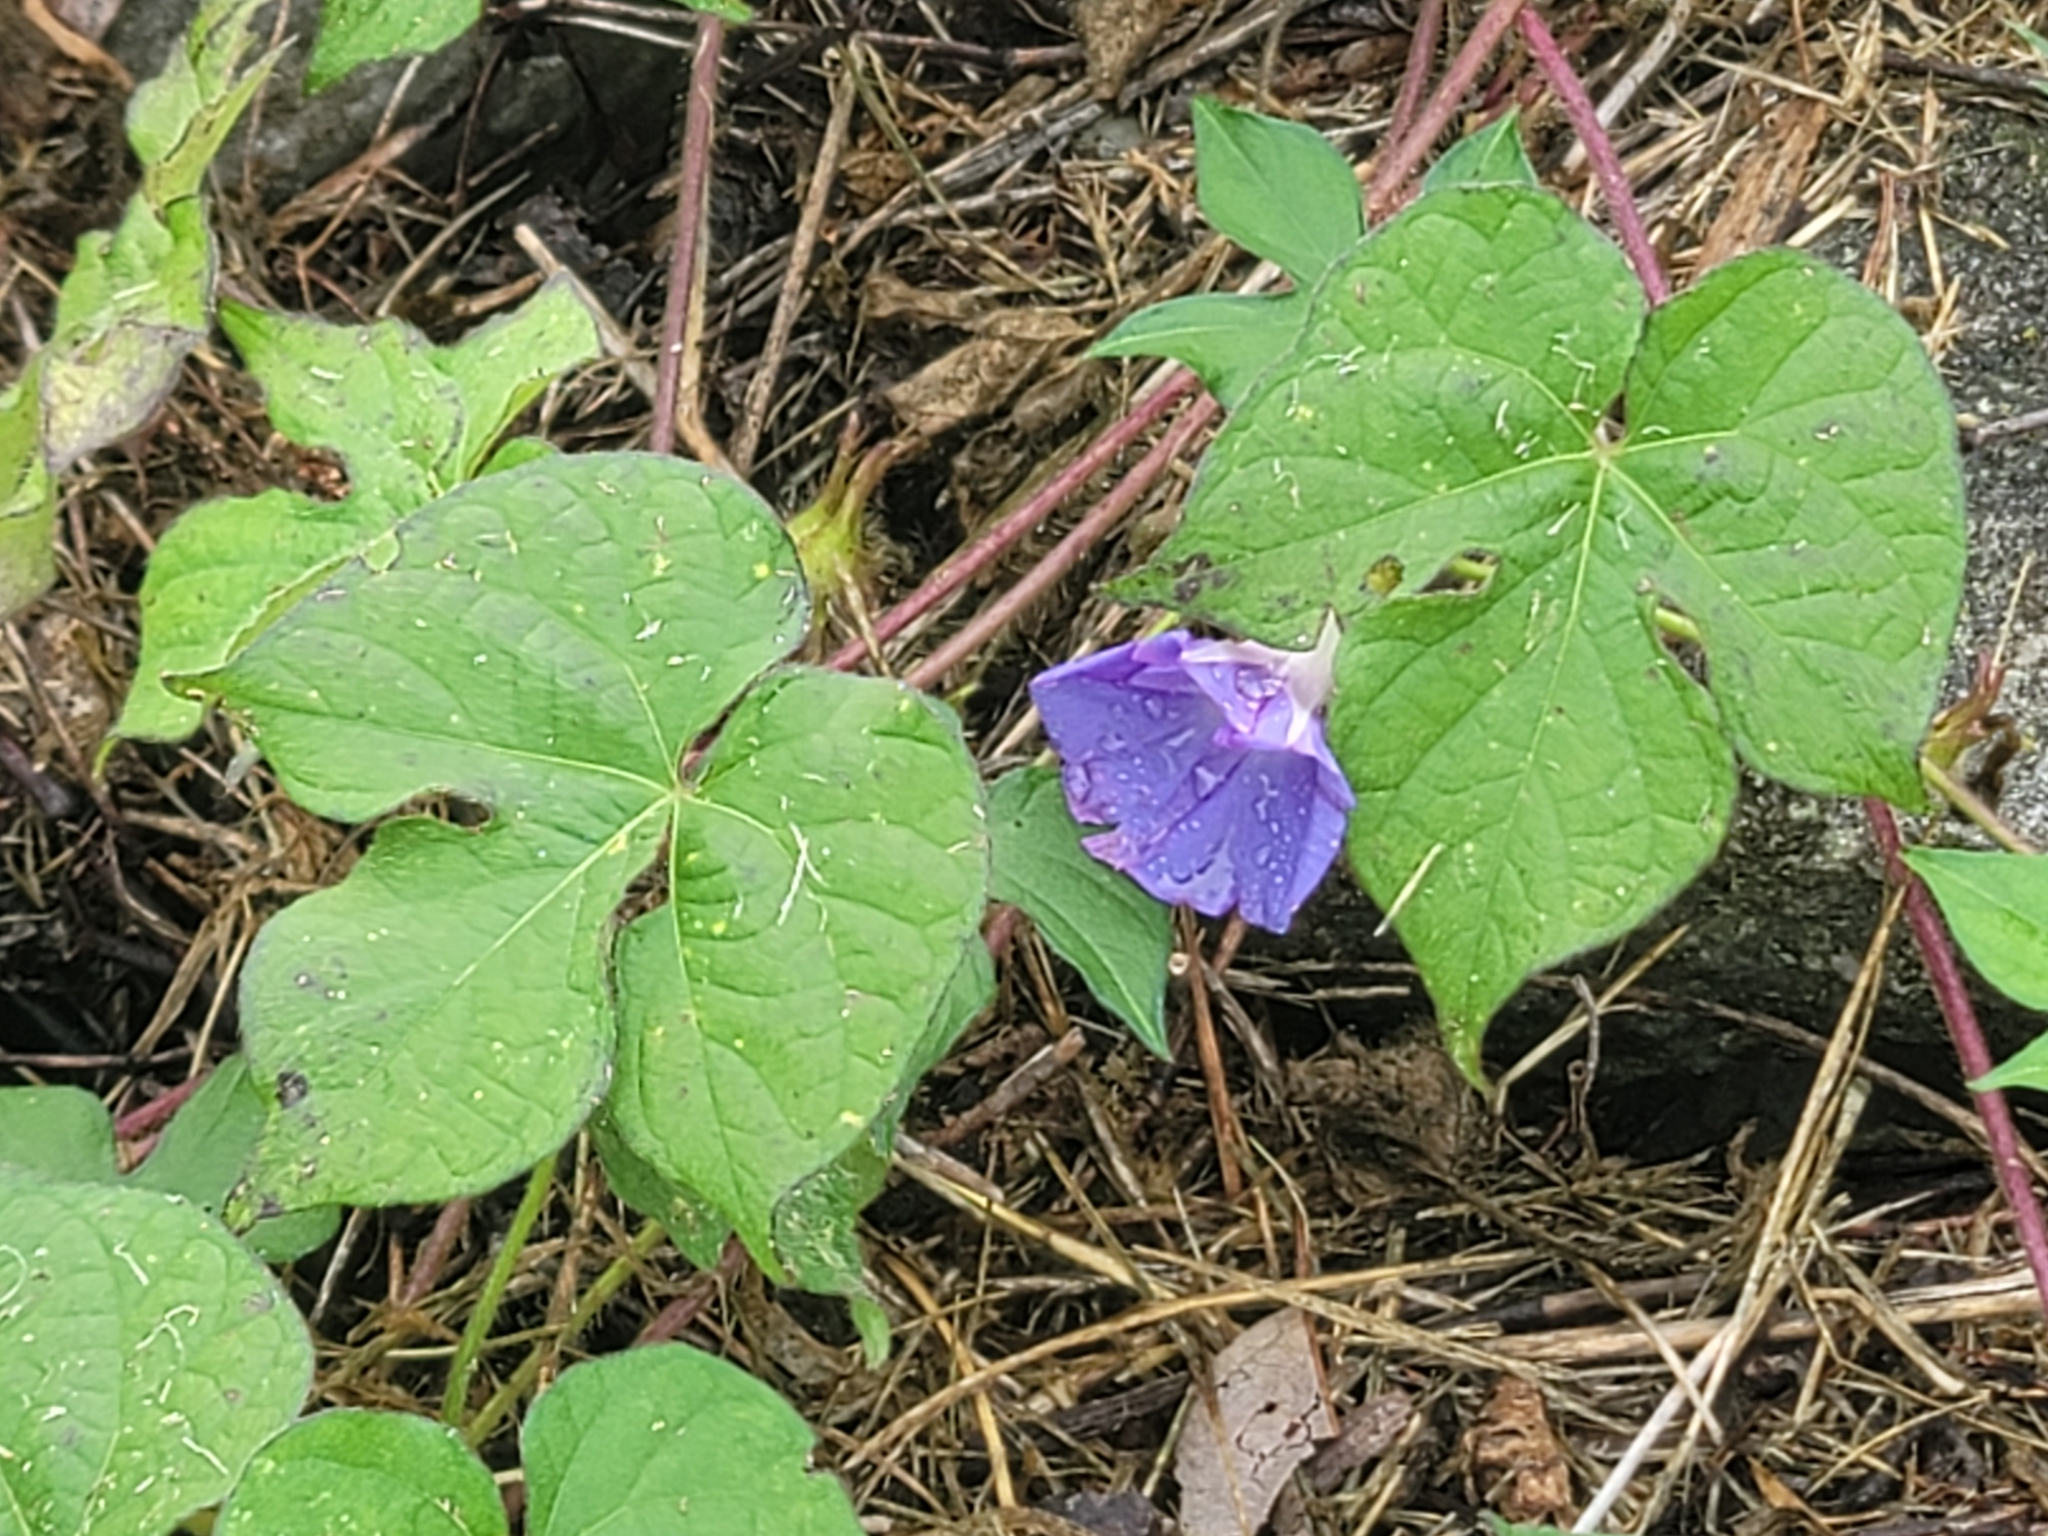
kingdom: Plantae
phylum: Tracheophyta
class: Magnoliopsida
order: Solanales
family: Convolvulaceae
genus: Ipomoea
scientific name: Ipomoea hederacea
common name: Ivy-leaved morning-glory
